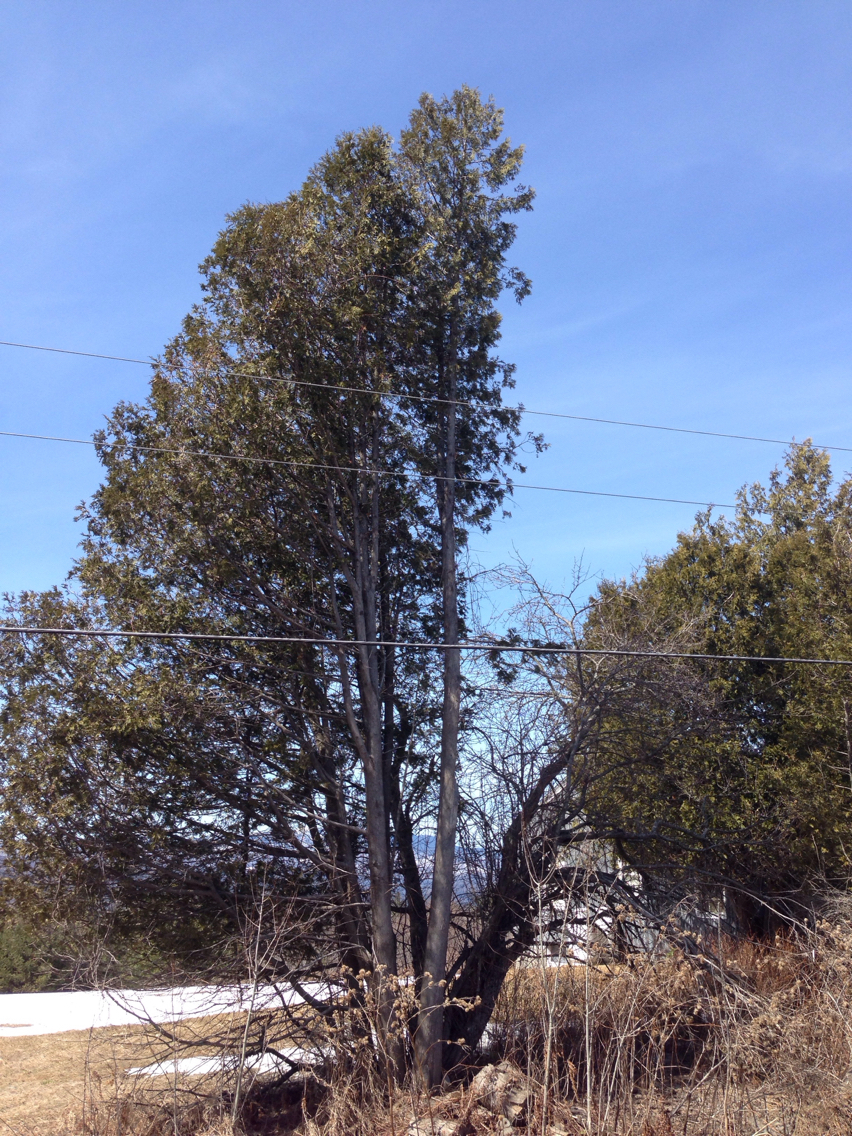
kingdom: Plantae
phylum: Tracheophyta
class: Pinopsida
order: Pinales
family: Cupressaceae
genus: Thuja
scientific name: Thuja occidentalis
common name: Northern white-cedar
